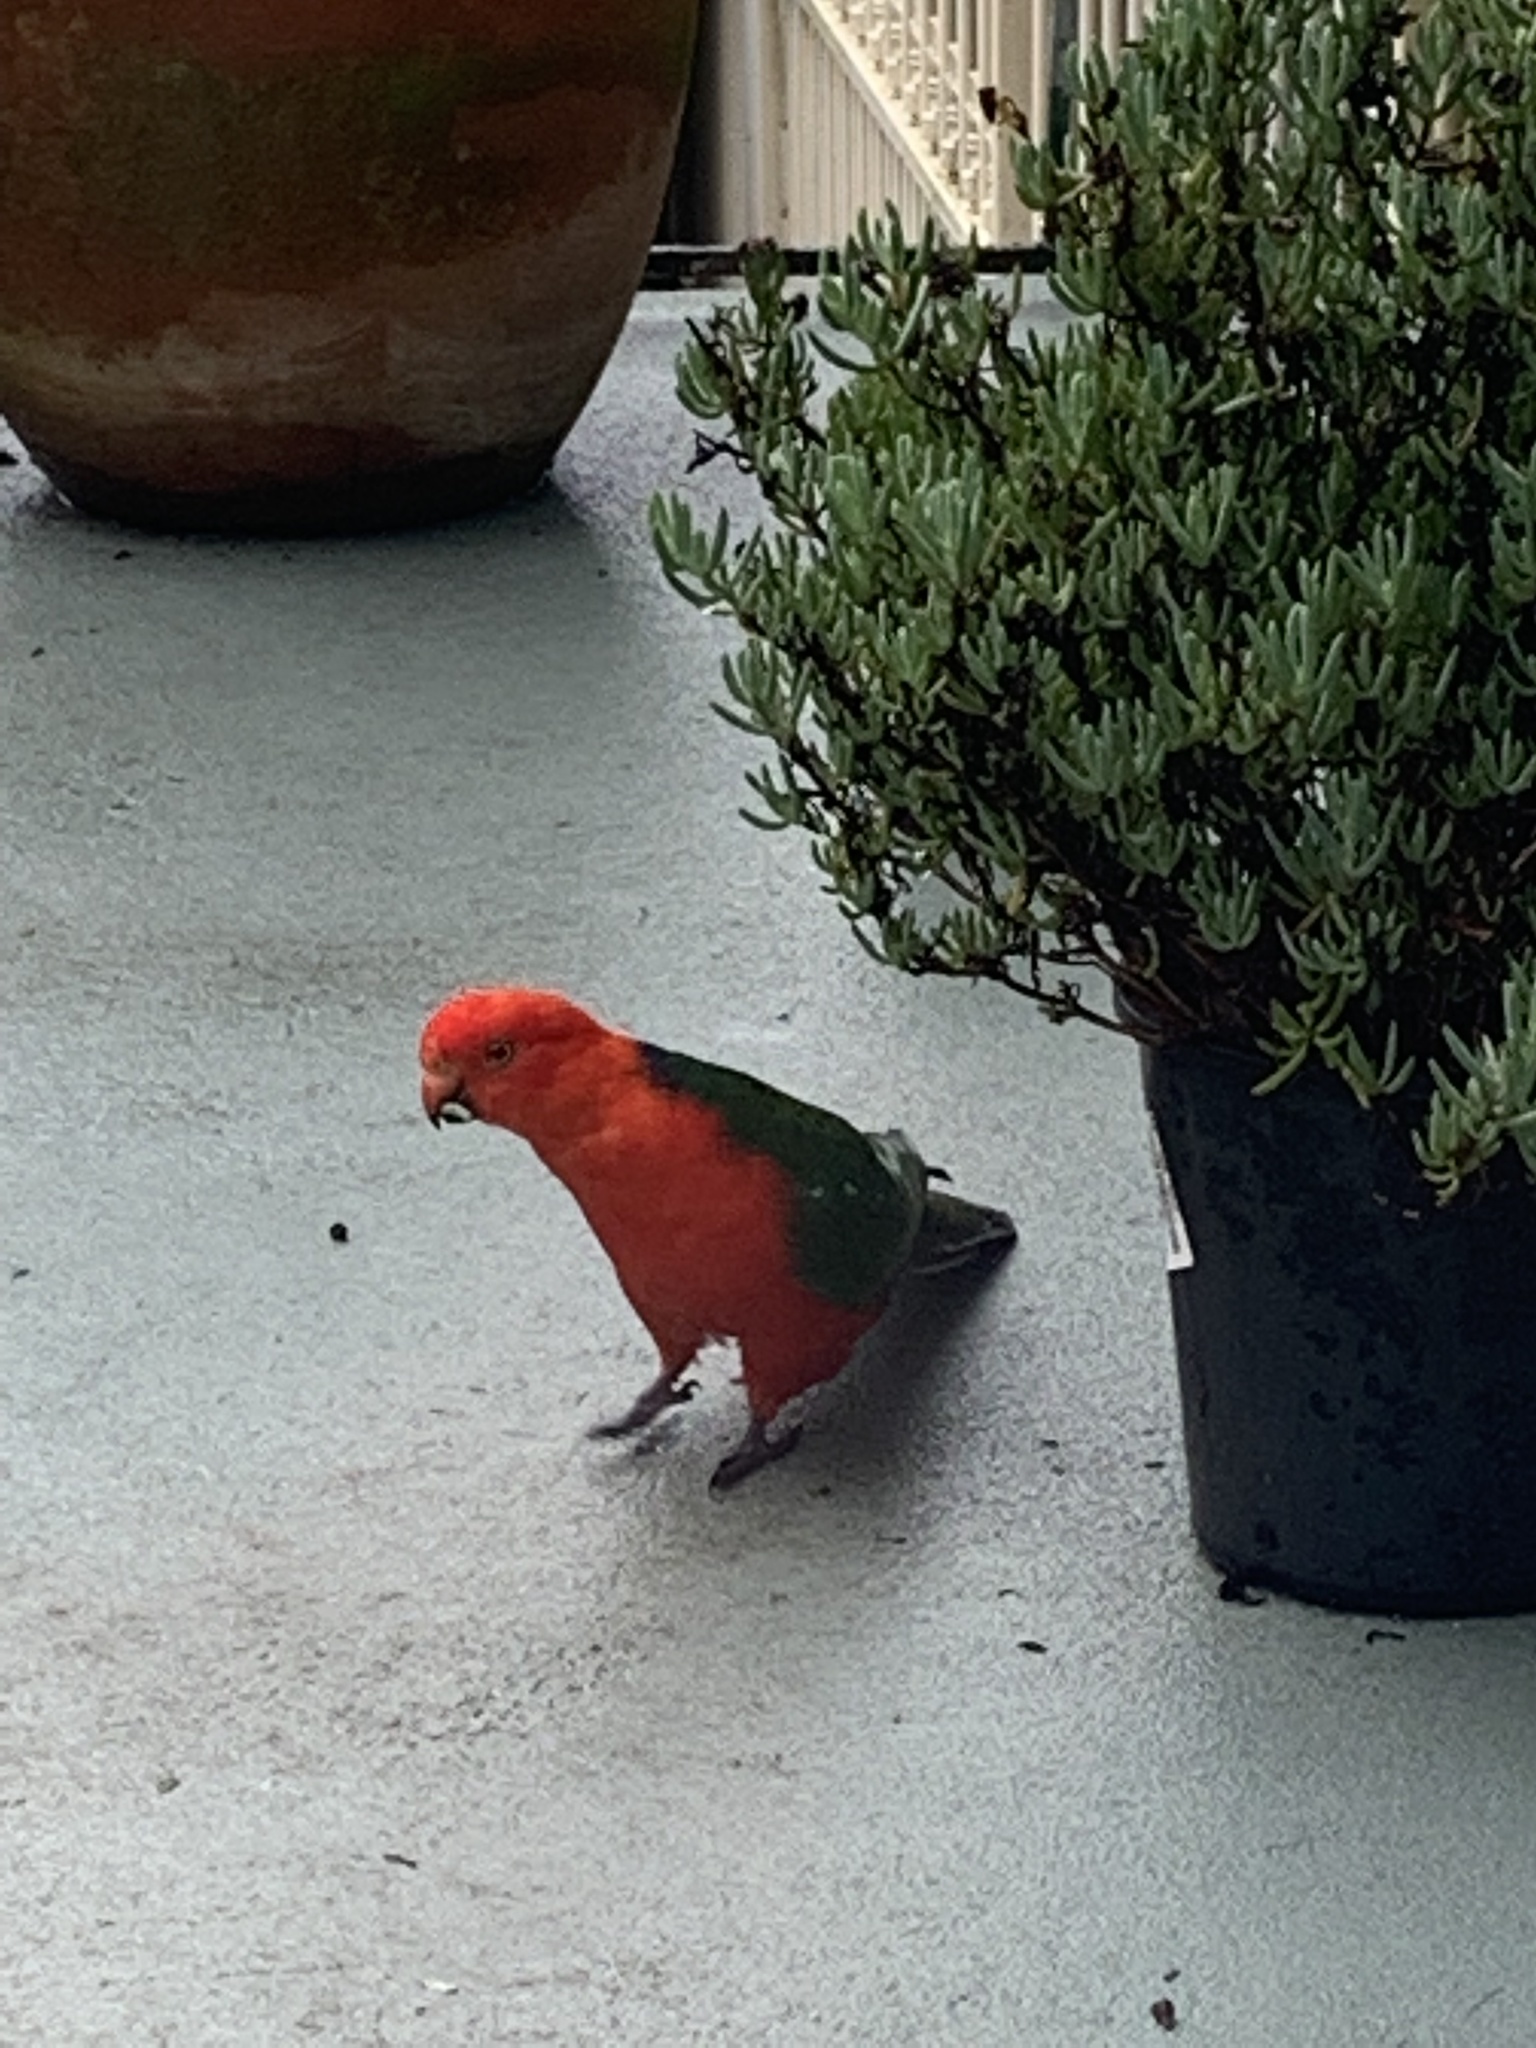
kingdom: Animalia
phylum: Chordata
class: Aves
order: Psittaciformes
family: Psittacidae
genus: Alisterus
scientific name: Alisterus scapularis
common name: Australian king parrot
